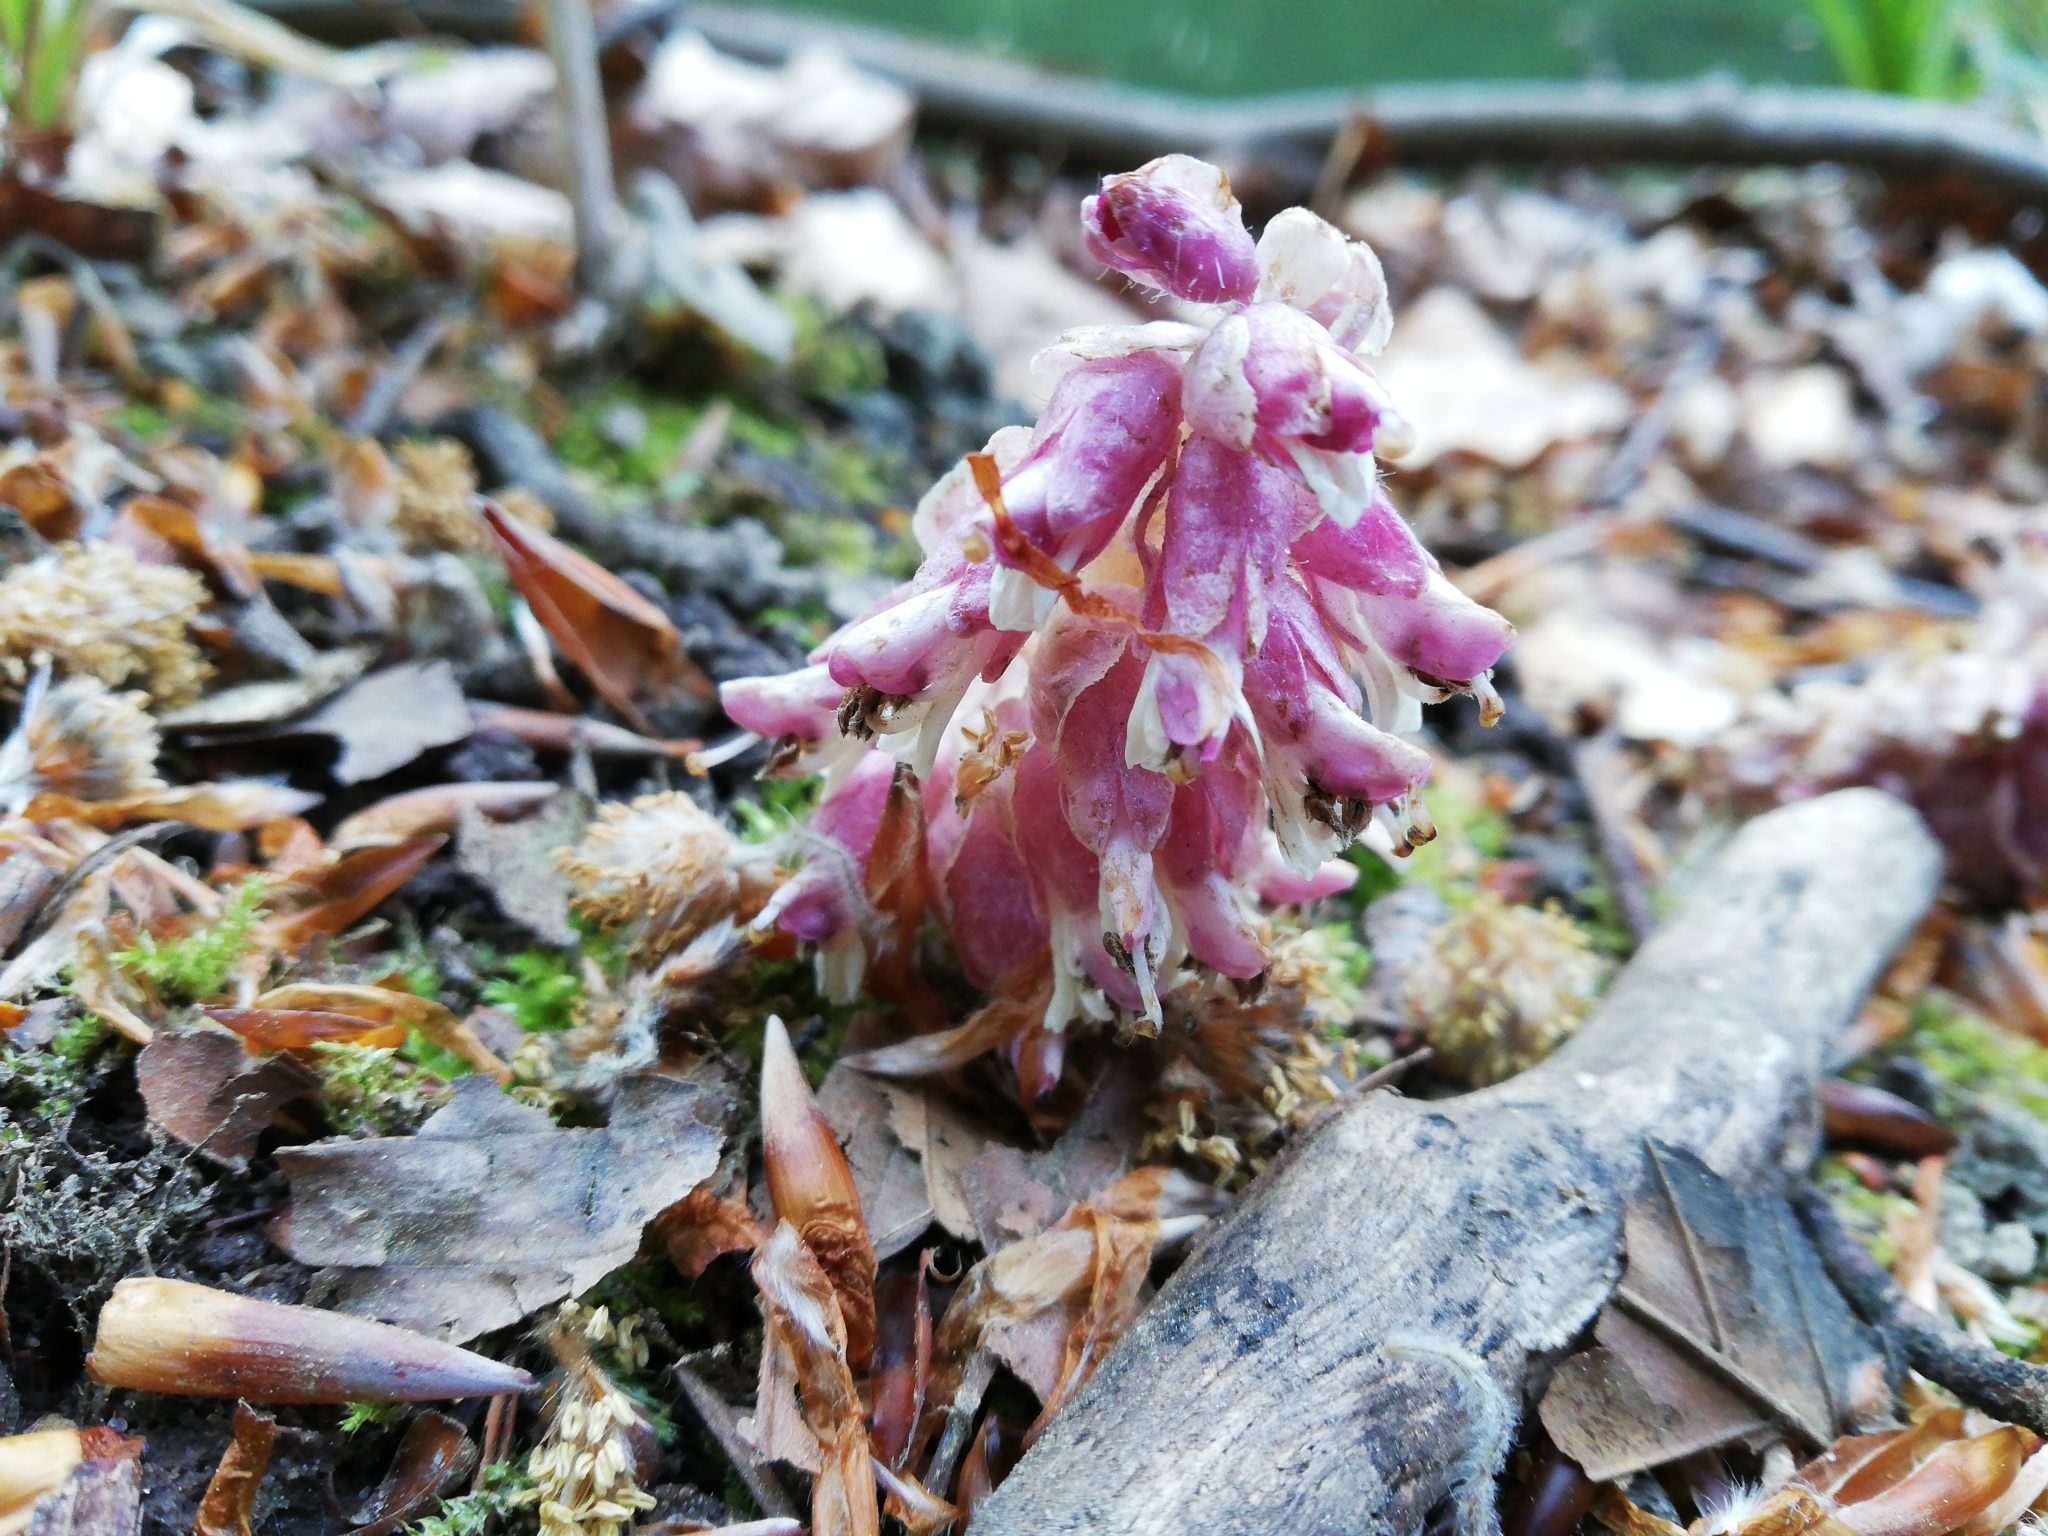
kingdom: Plantae
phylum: Tracheophyta
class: Magnoliopsida
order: Lamiales
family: Orobanchaceae
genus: Lathraea
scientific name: Lathraea squamaria
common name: Toothwort
